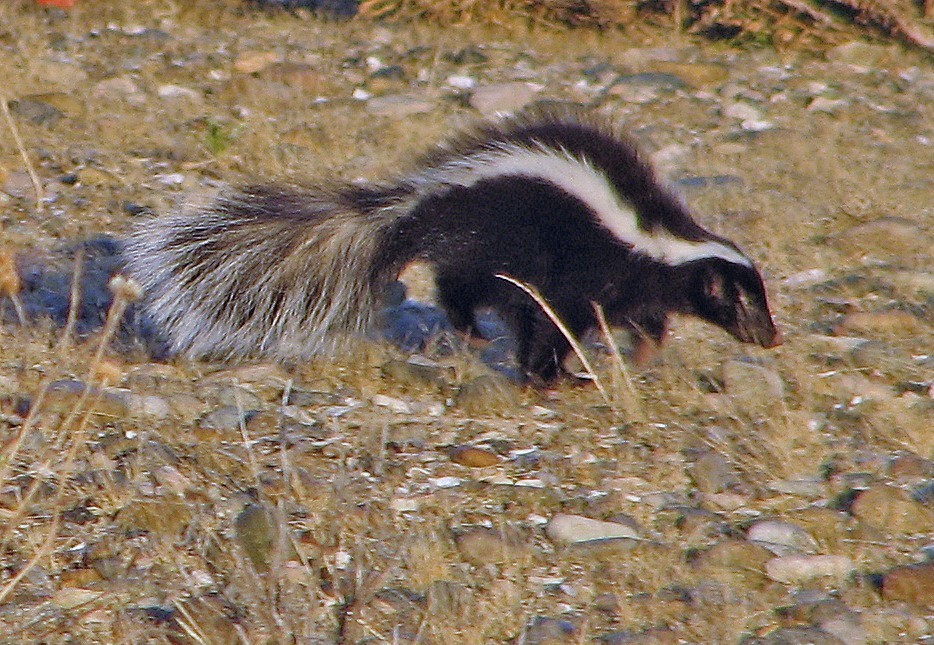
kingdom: Animalia
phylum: Chordata
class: Mammalia
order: Carnivora
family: Mephitidae
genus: Conepatus
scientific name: Conepatus chinga
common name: Molina's hog-nosed skunk
